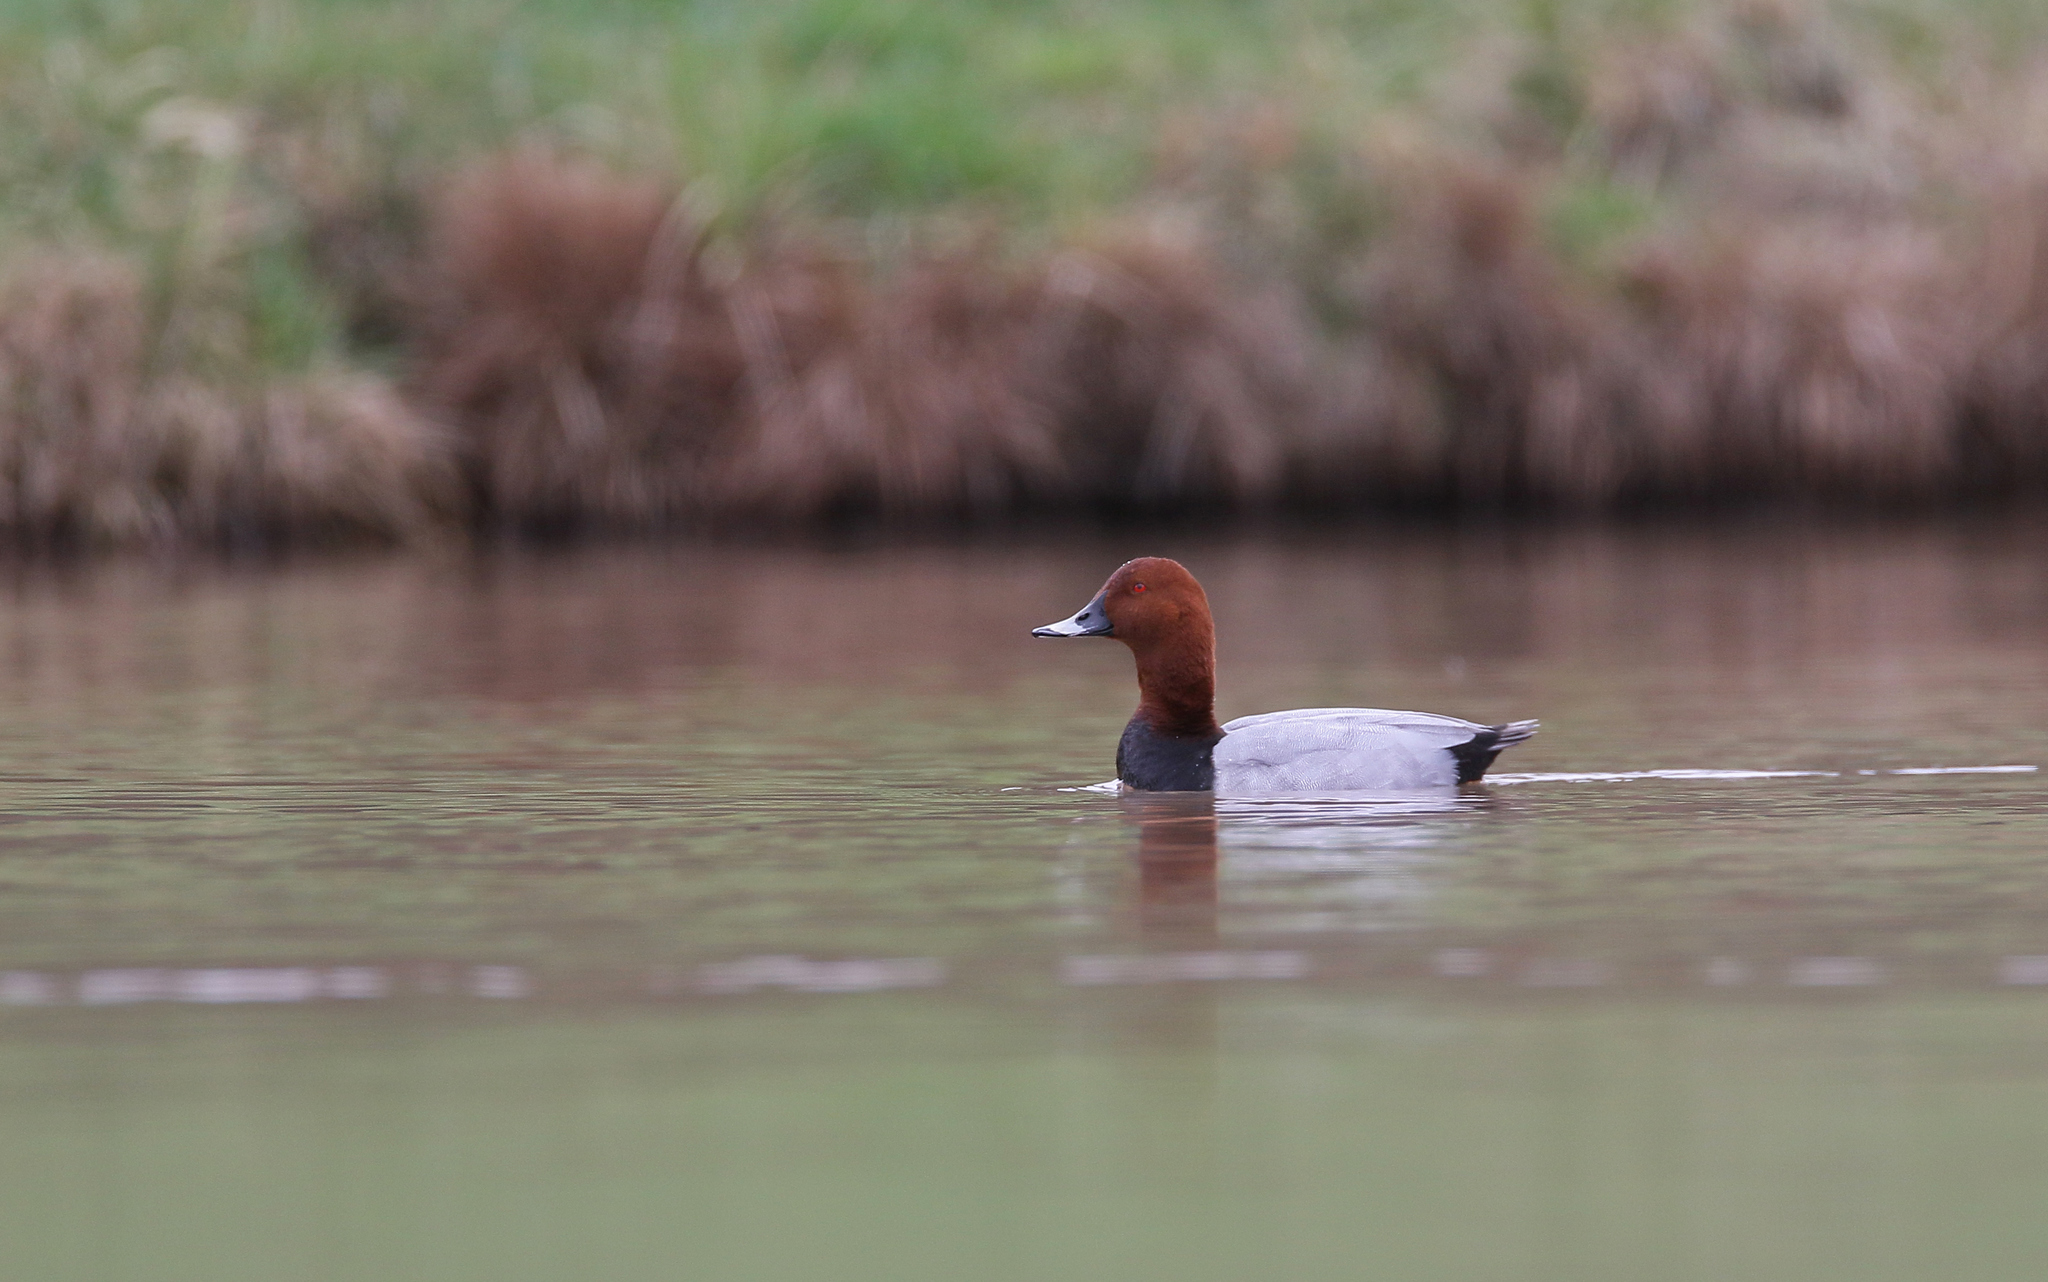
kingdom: Animalia
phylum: Chordata
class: Aves
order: Anseriformes
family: Anatidae
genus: Aythya
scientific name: Aythya ferina
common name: Common pochard
